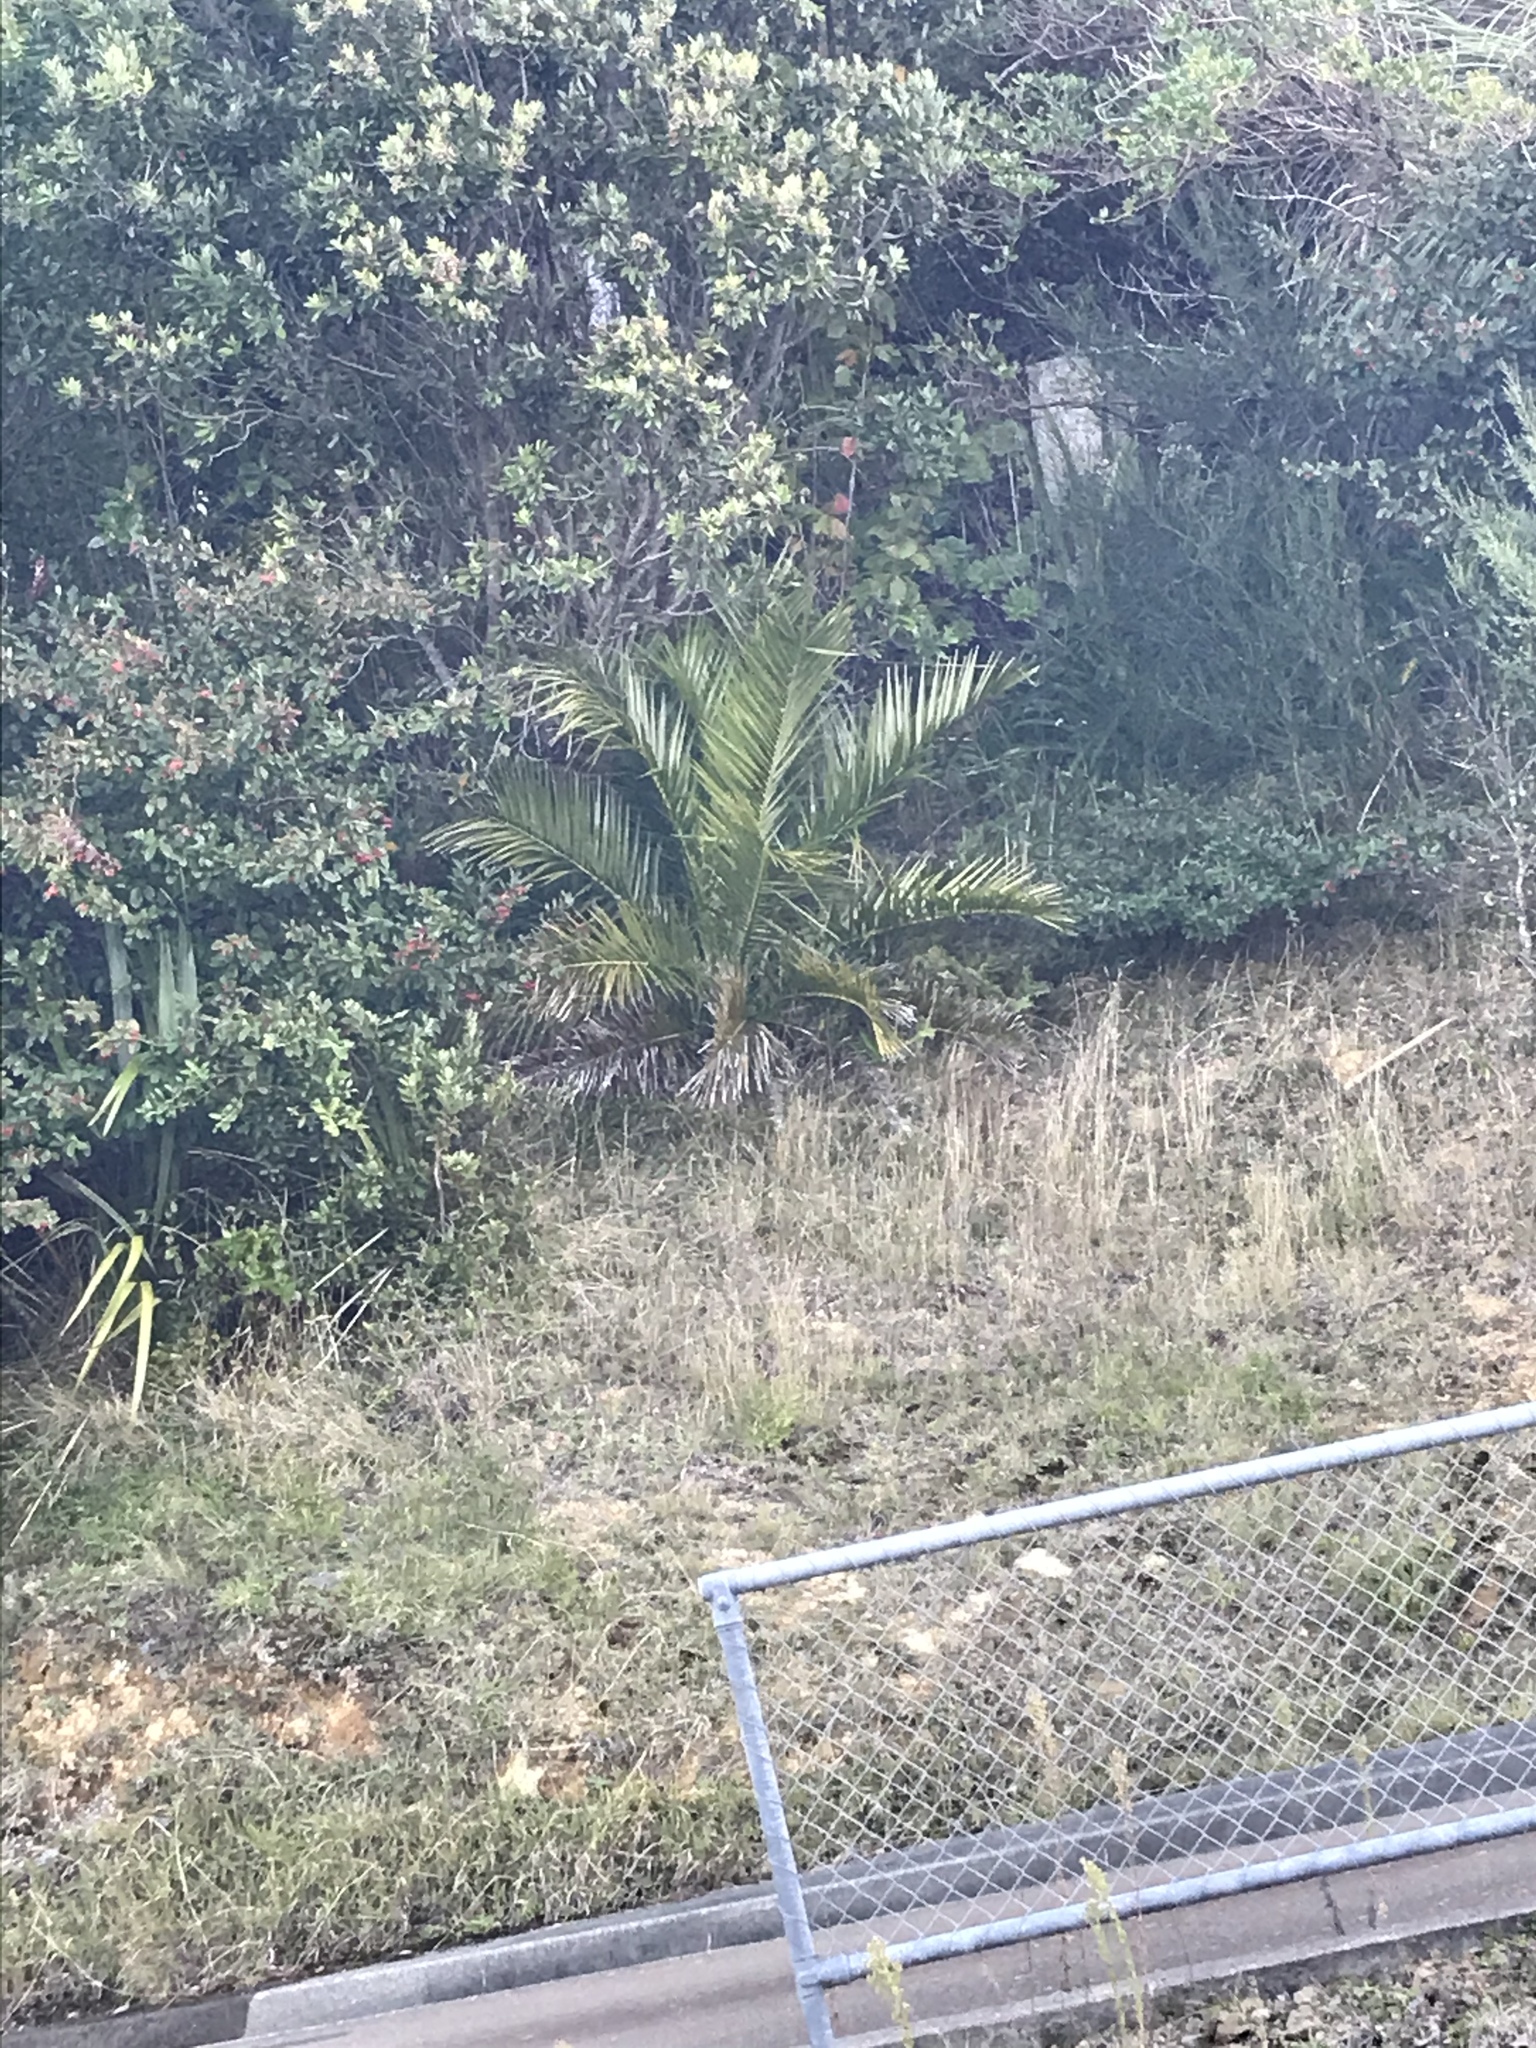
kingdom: Plantae
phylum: Tracheophyta
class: Liliopsida
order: Arecales
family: Arecaceae
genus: Phoenix
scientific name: Phoenix canariensis
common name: Canary island date palm
